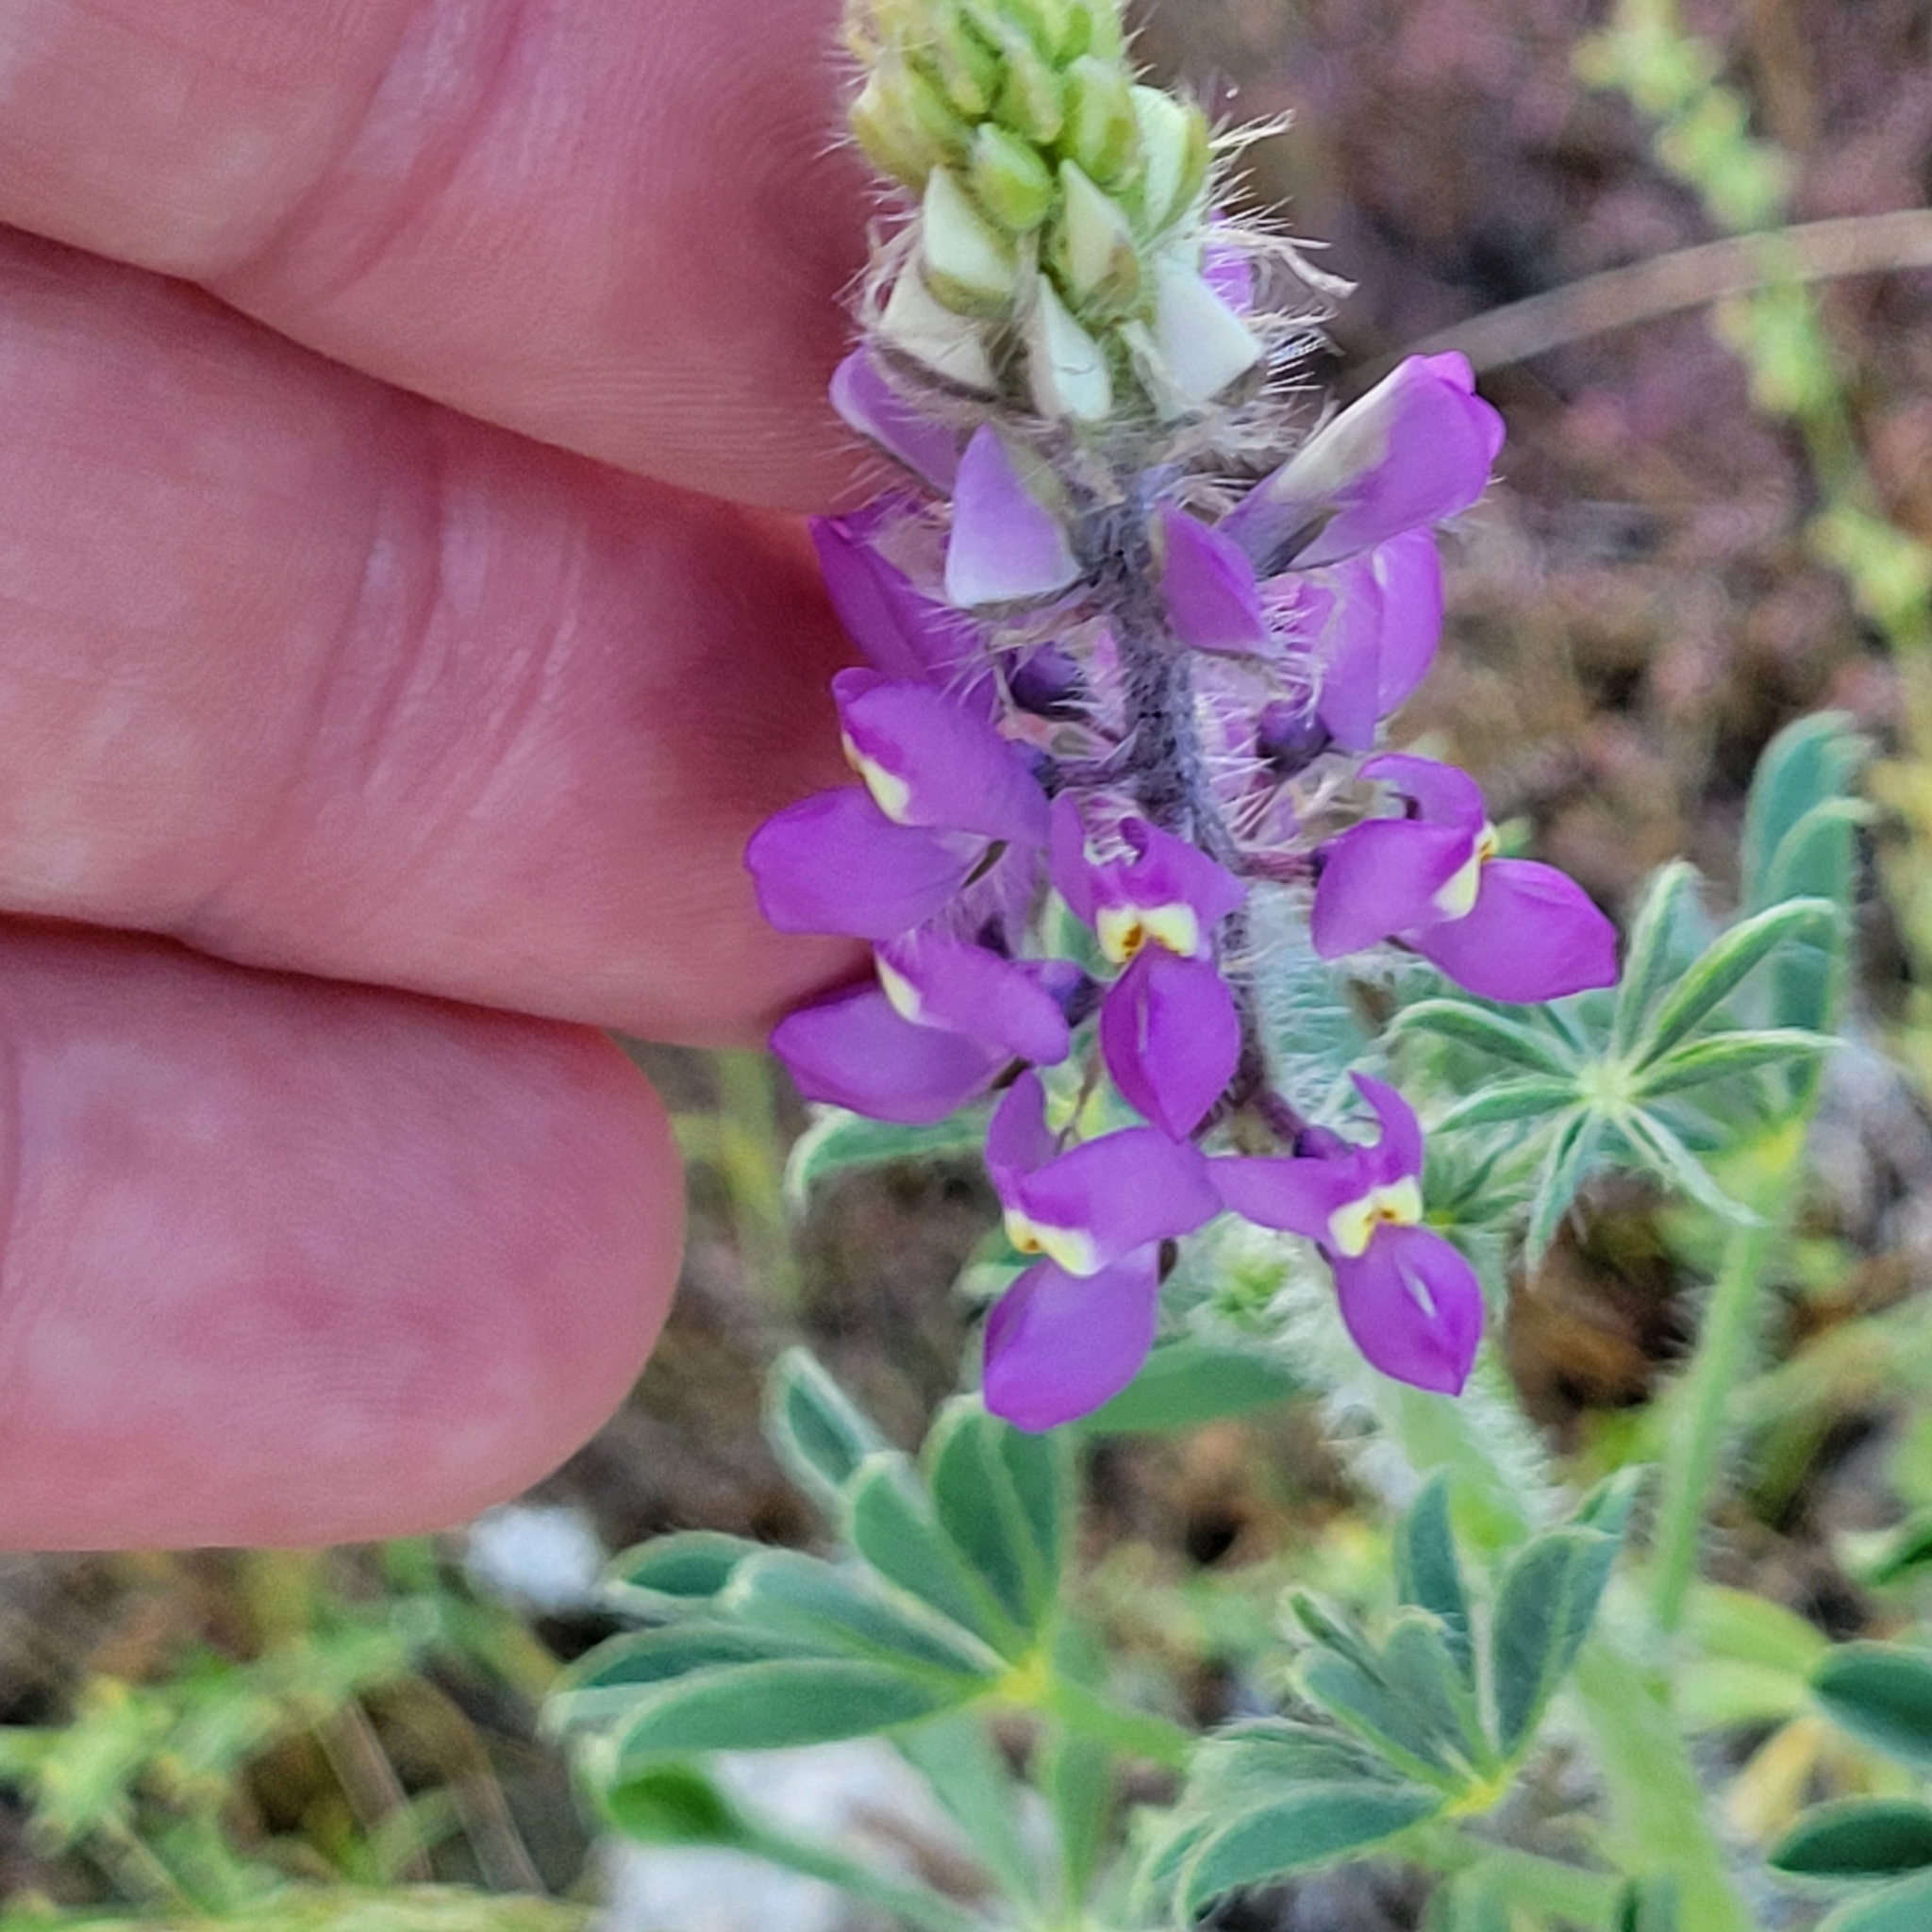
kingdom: Plantae
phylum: Tracheophyta
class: Magnoliopsida
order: Fabales
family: Fabaceae
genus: Lupinus
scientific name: Lupinus arizonicus
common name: Arizona lupine
